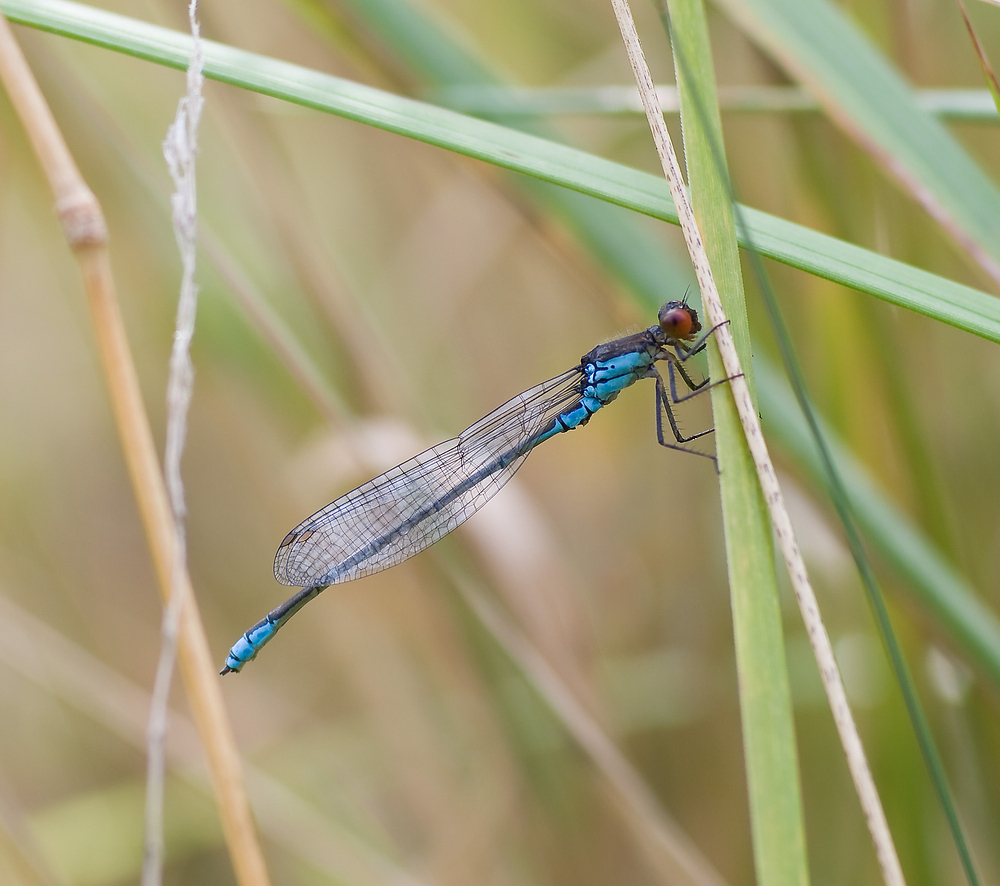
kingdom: Animalia
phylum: Arthropoda
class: Insecta
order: Odonata
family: Coenagrionidae
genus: Erythromma
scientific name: Erythromma viridulum
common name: Small red-eyed damselfly
